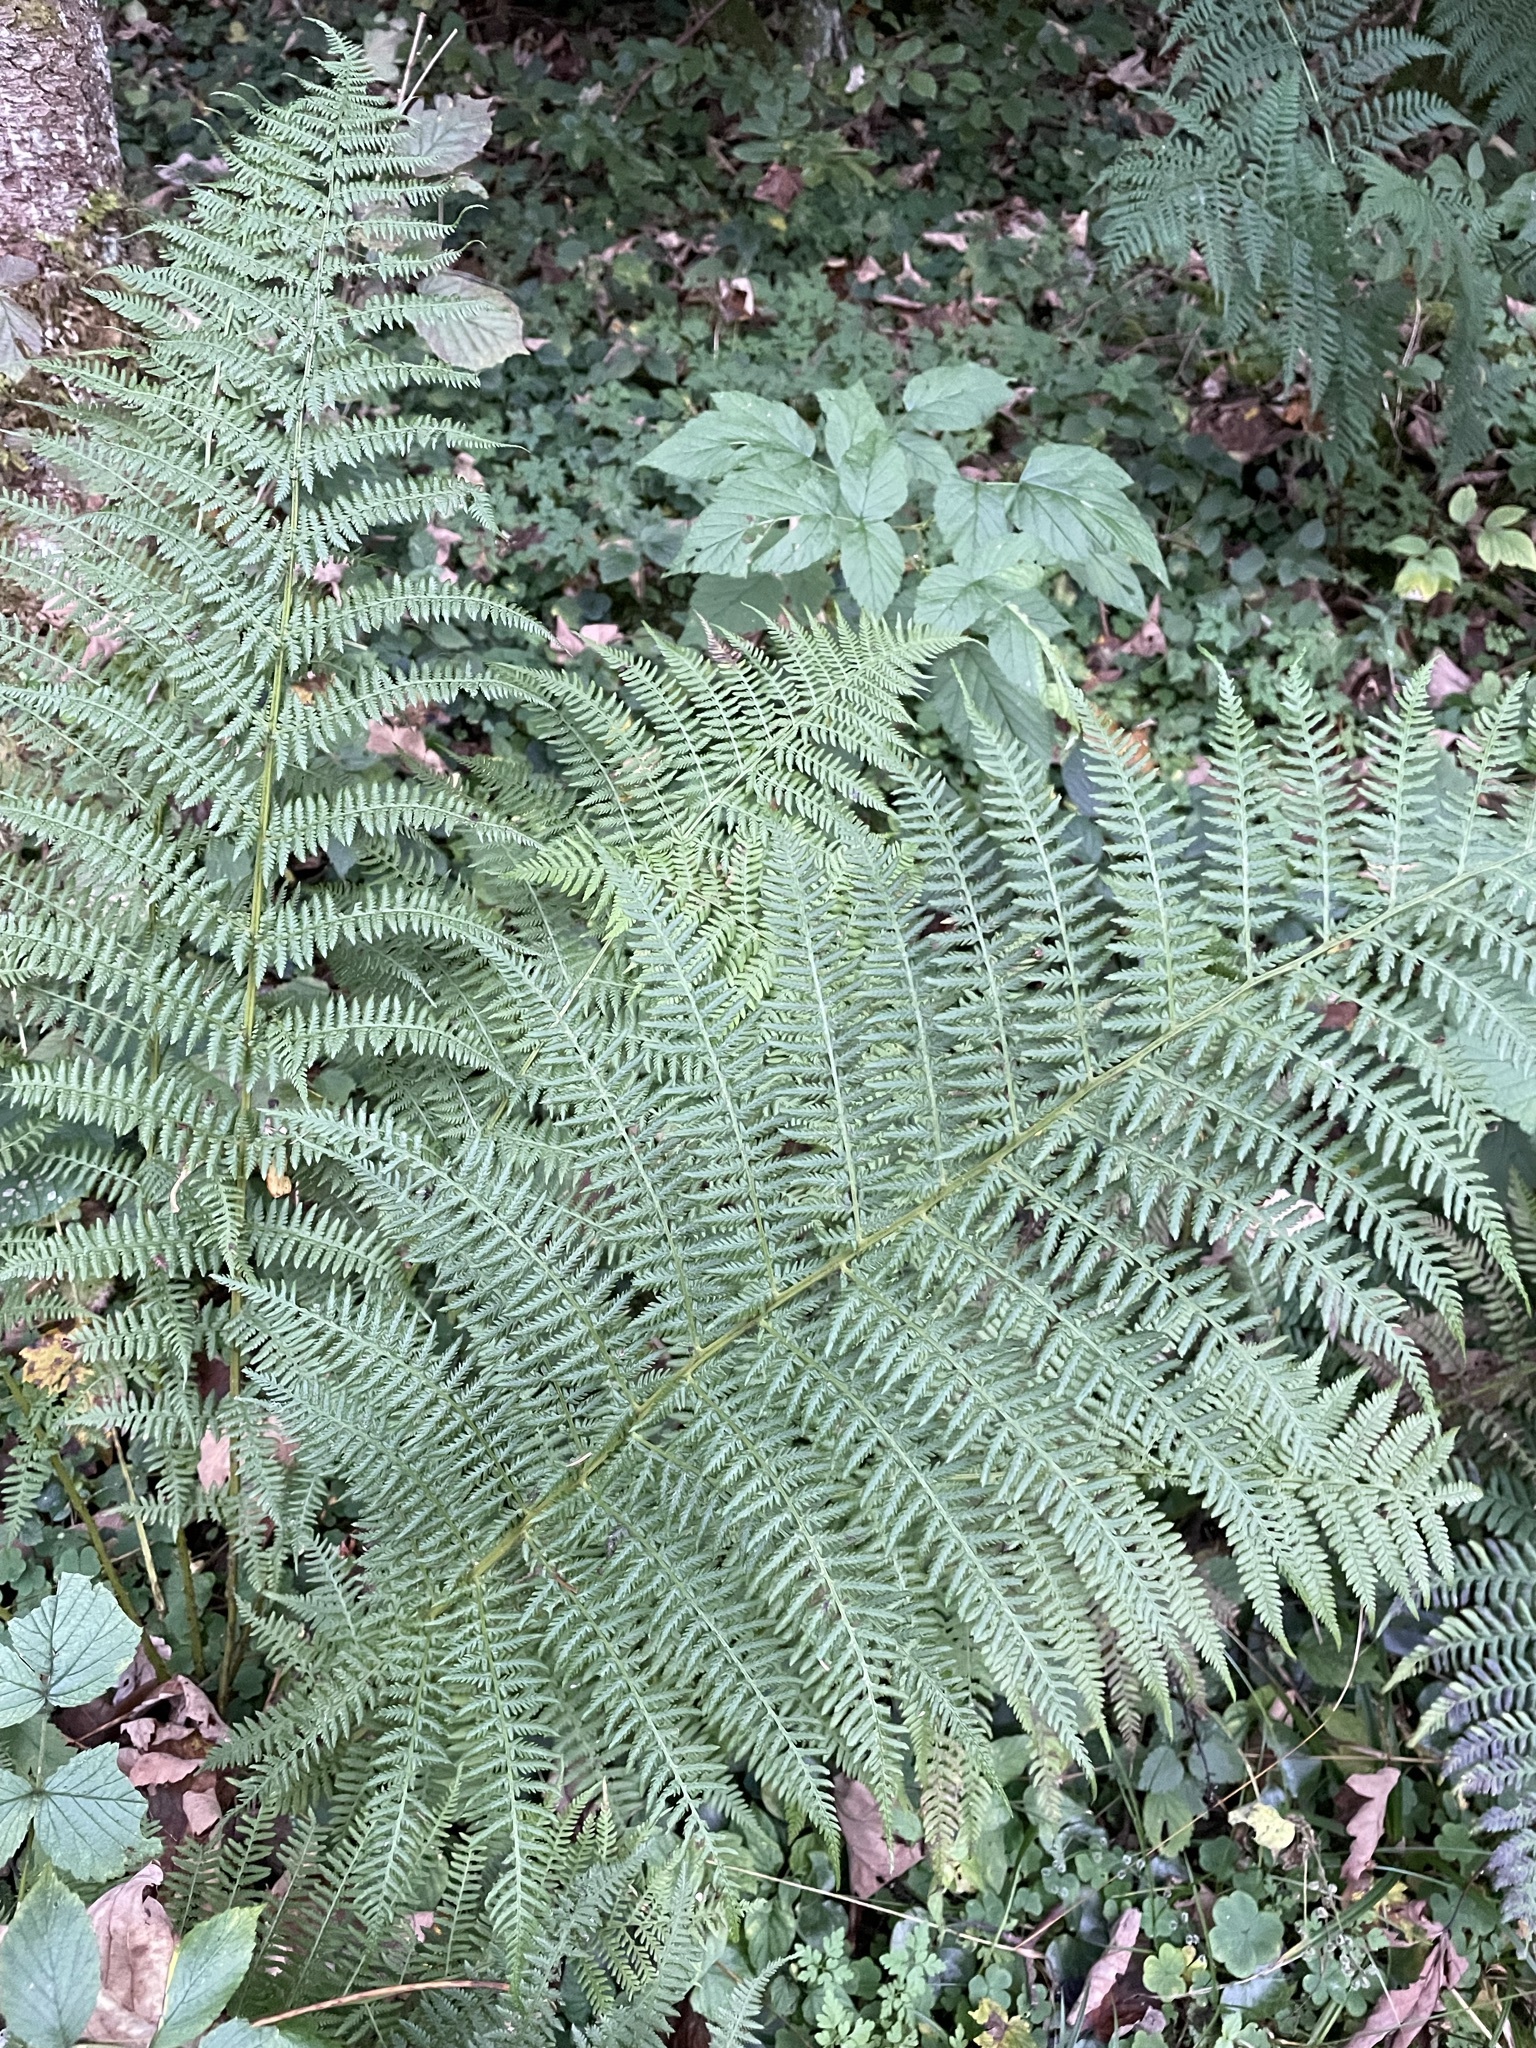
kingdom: Plantae
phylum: Tracheophyta
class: Polypodiopsida
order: Polypodiales
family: Athyriaceae
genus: Athyrium
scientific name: Athyrium filix-femina
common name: Lady fern
